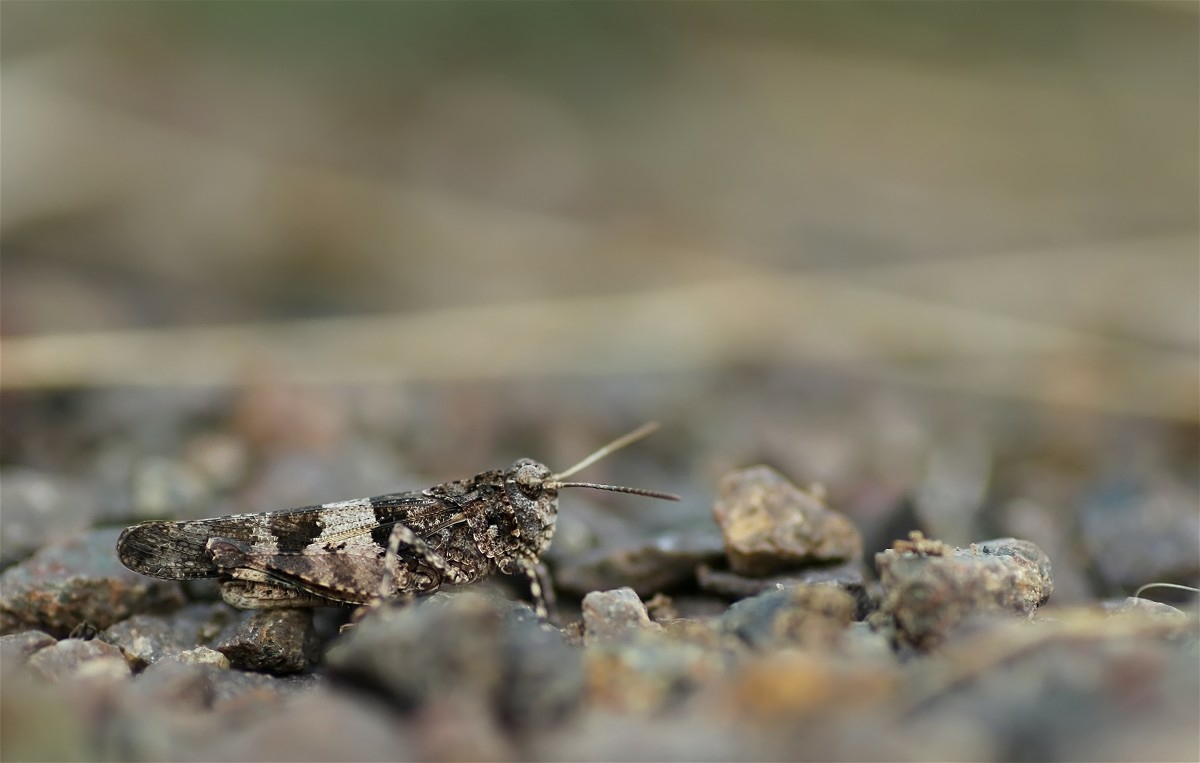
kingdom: Animalia
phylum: Arthropoda
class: Insecta
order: Orthoptera
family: Acrididae
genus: Oedipoda
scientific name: Oedipoda caerulescens
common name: Blue-winged grasshopper
